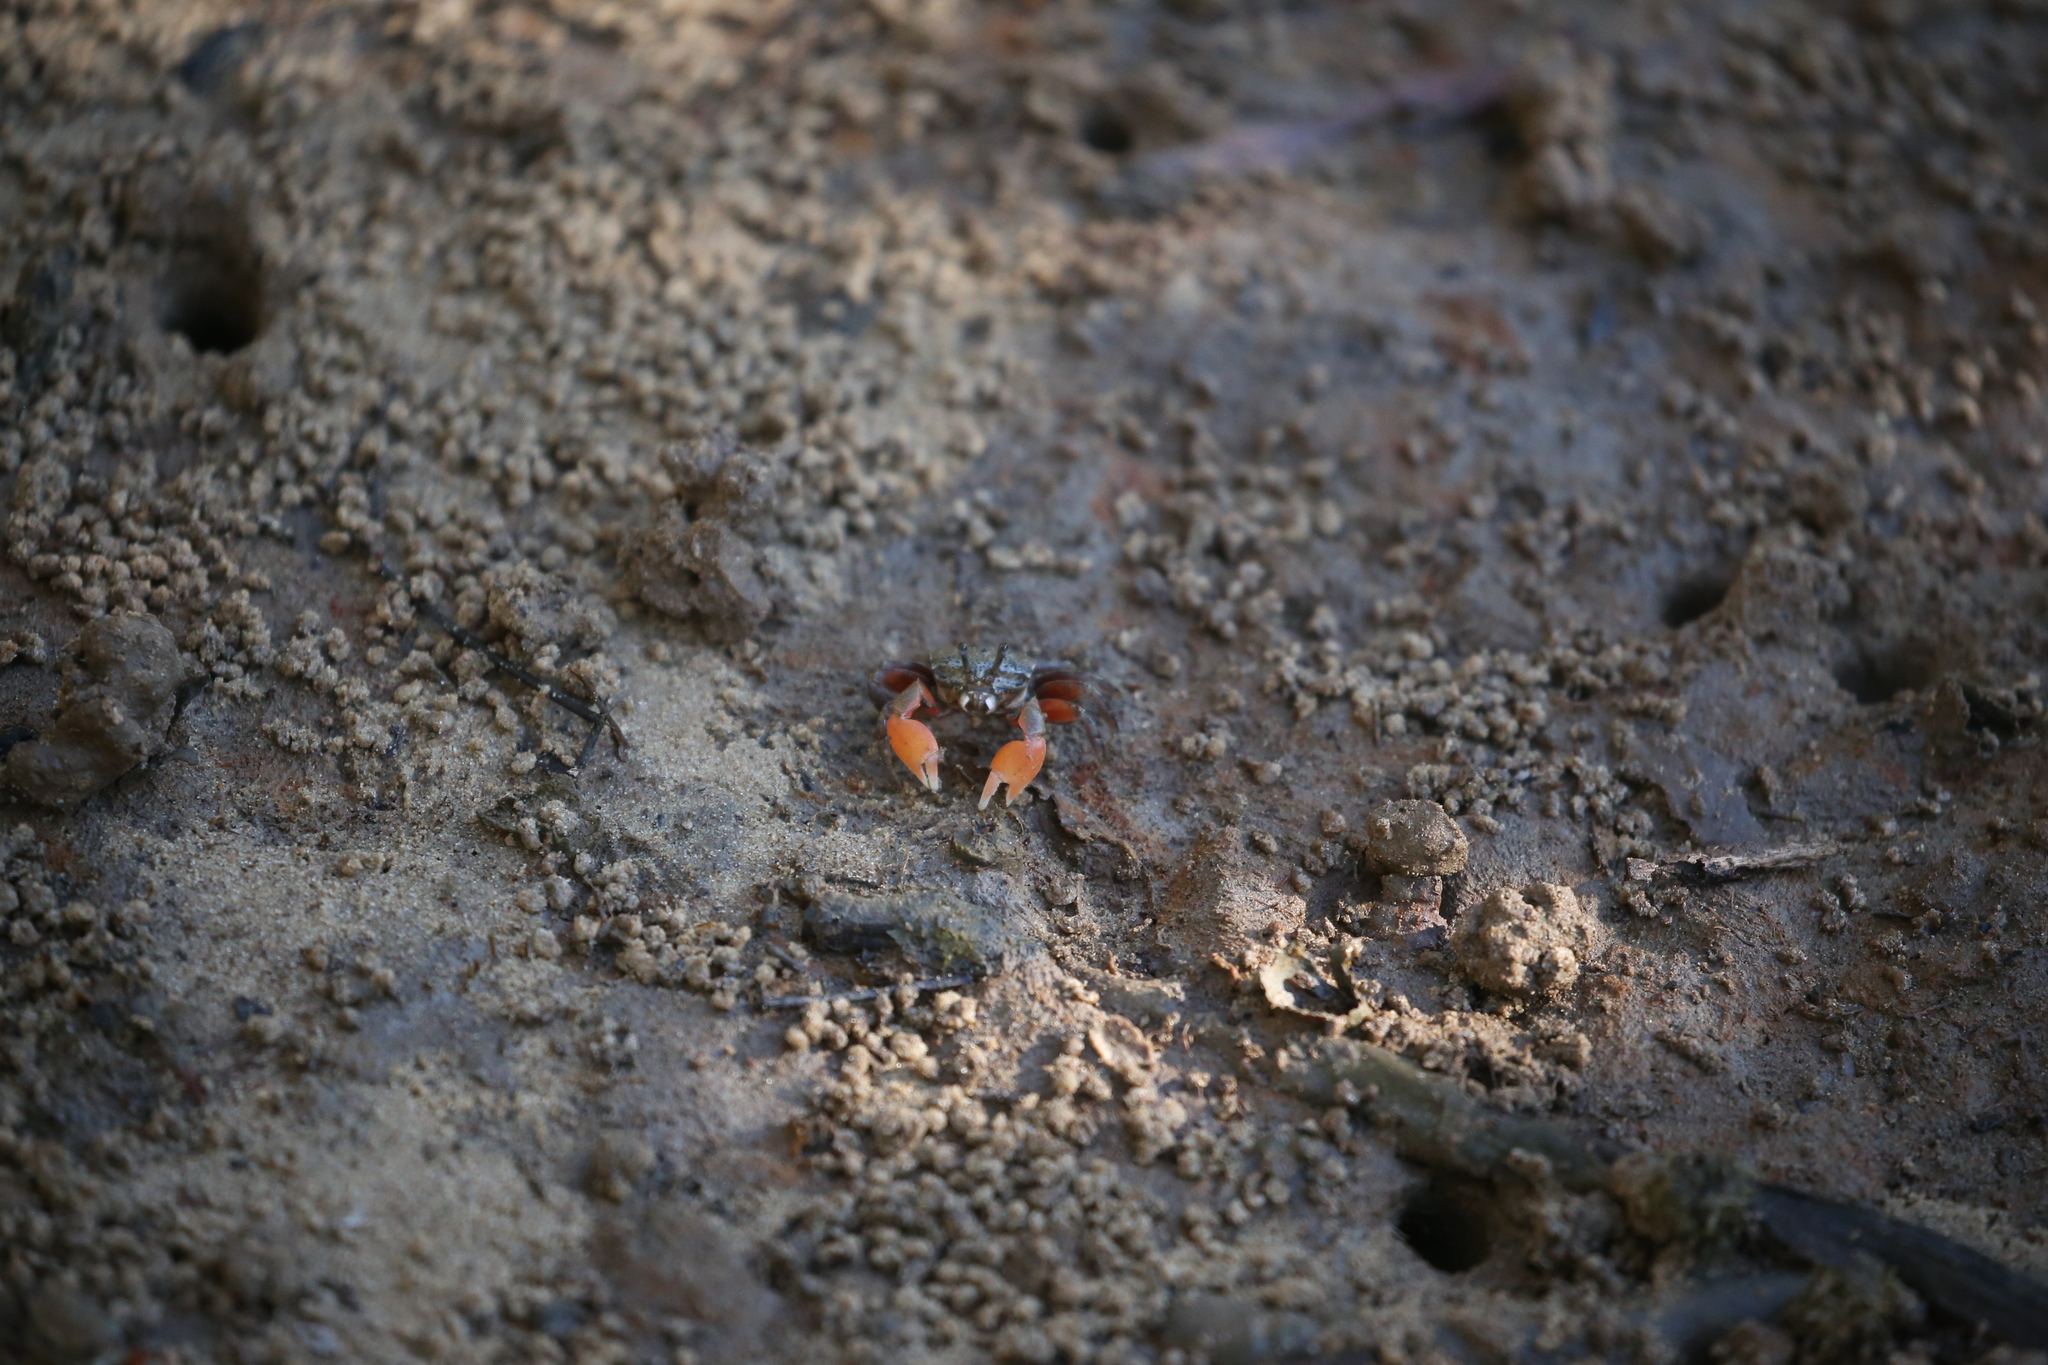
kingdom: Animalia
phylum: Arthropoda
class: Malacostraca
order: Decapoda
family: Heloeciidae
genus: Heloecius
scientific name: Heloecius cordiformis
